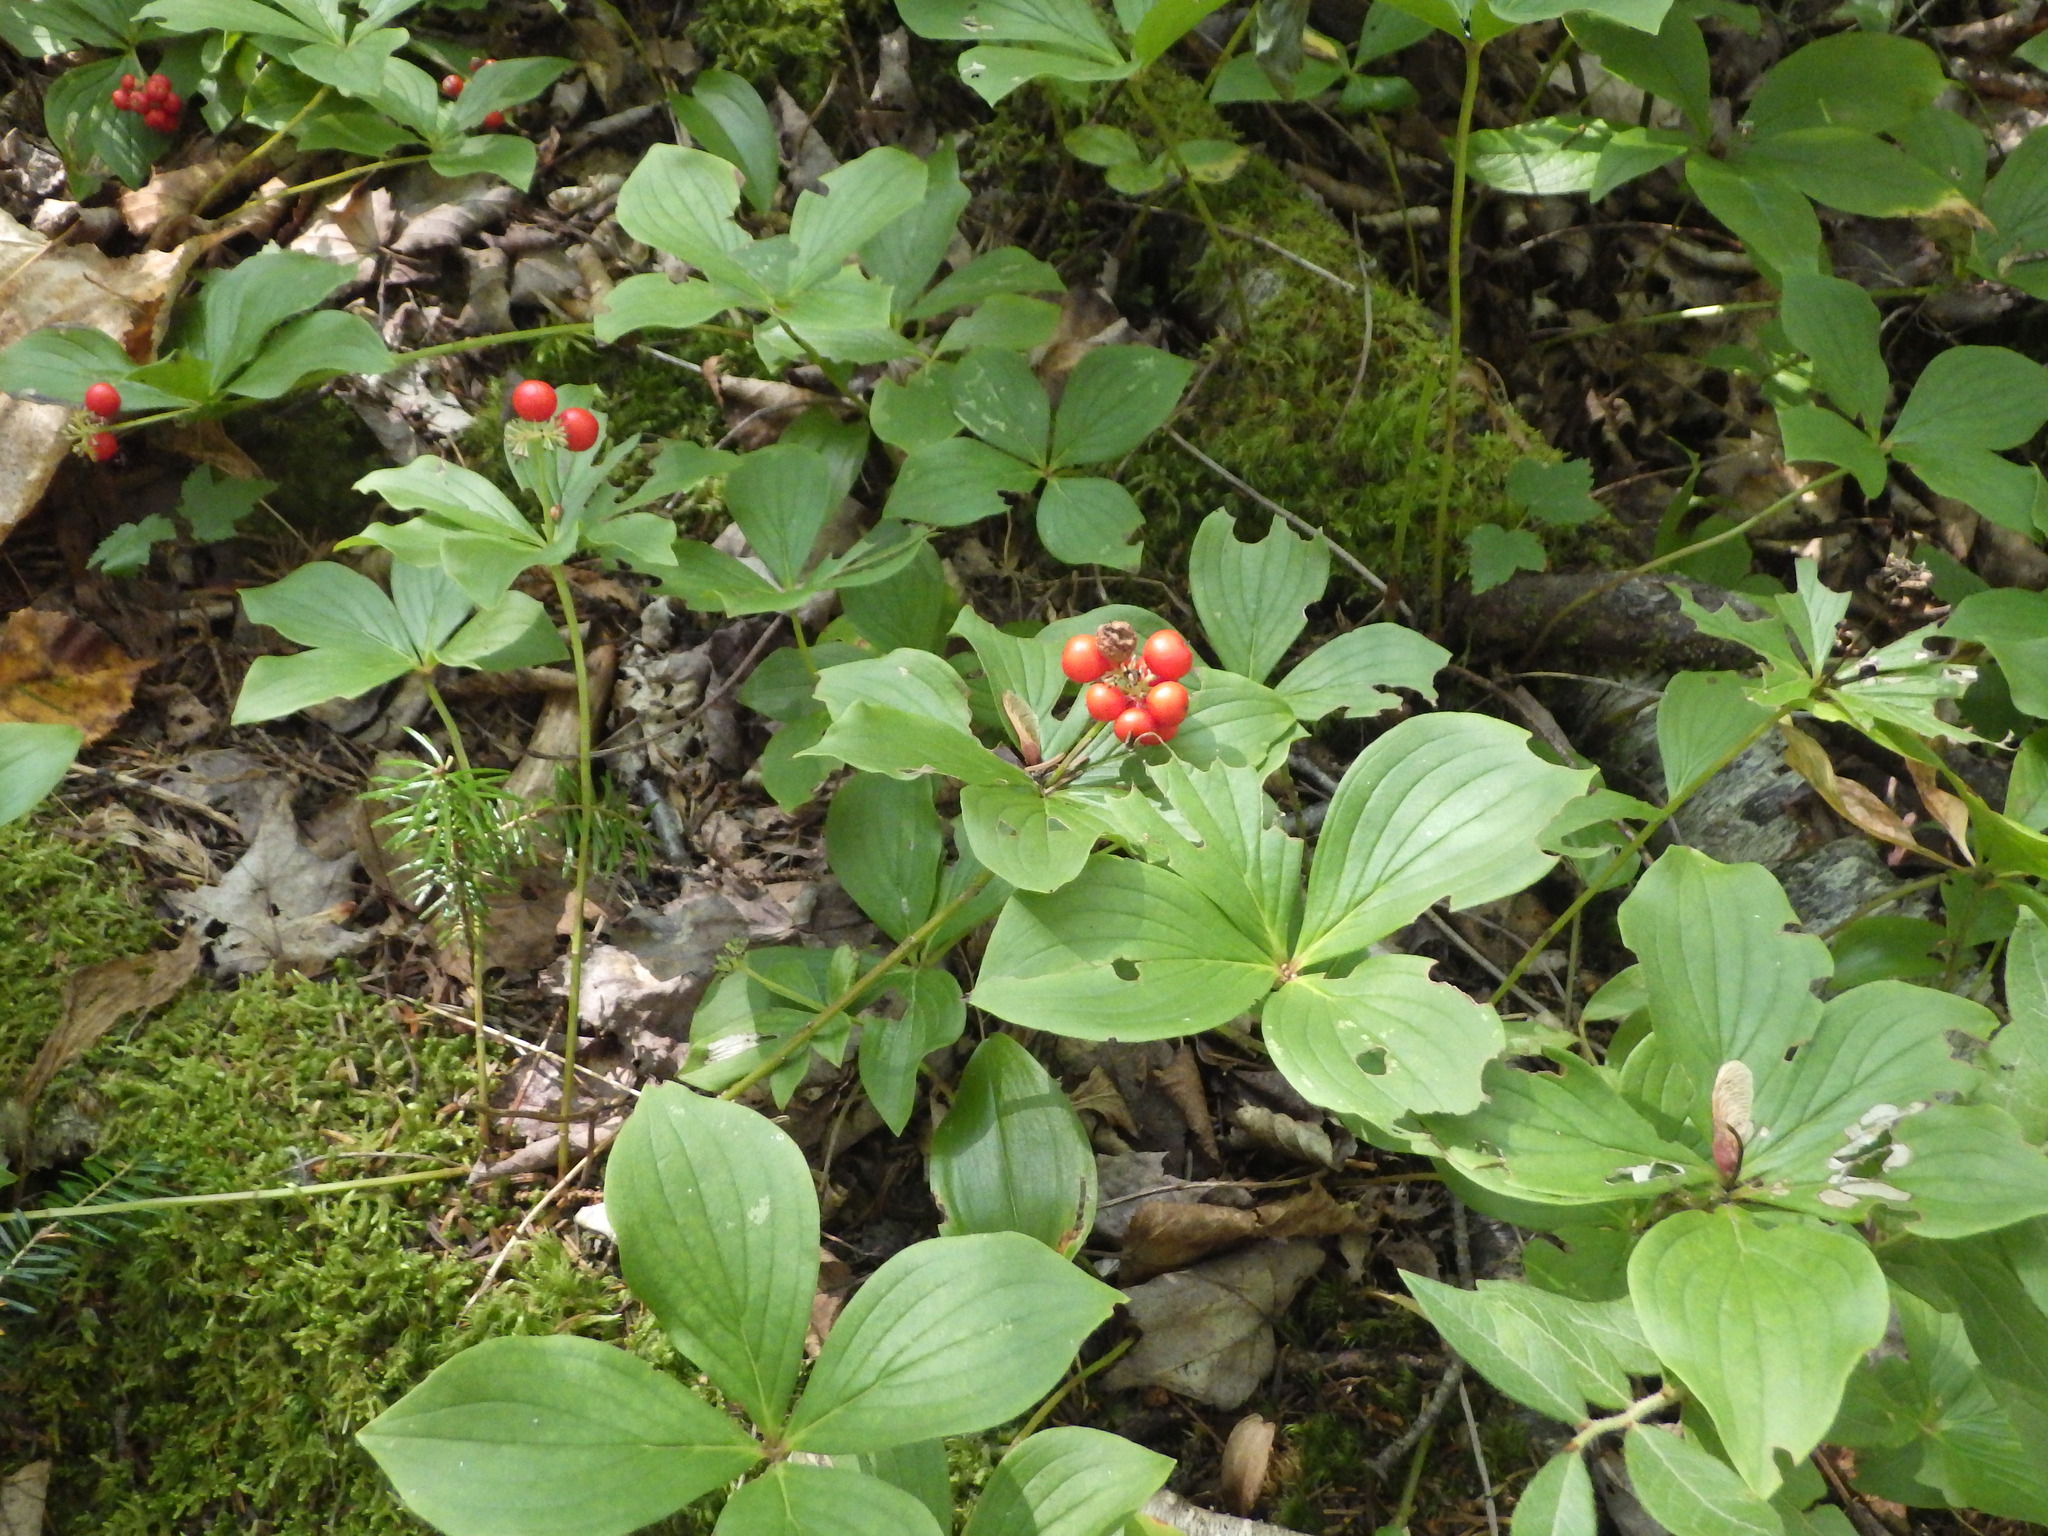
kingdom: Plantae
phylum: Tracheophyta
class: Magnoliopsida
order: Cornales
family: Cornaceae
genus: Cornus
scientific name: Cornus canadensis
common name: Creeping dogwood
